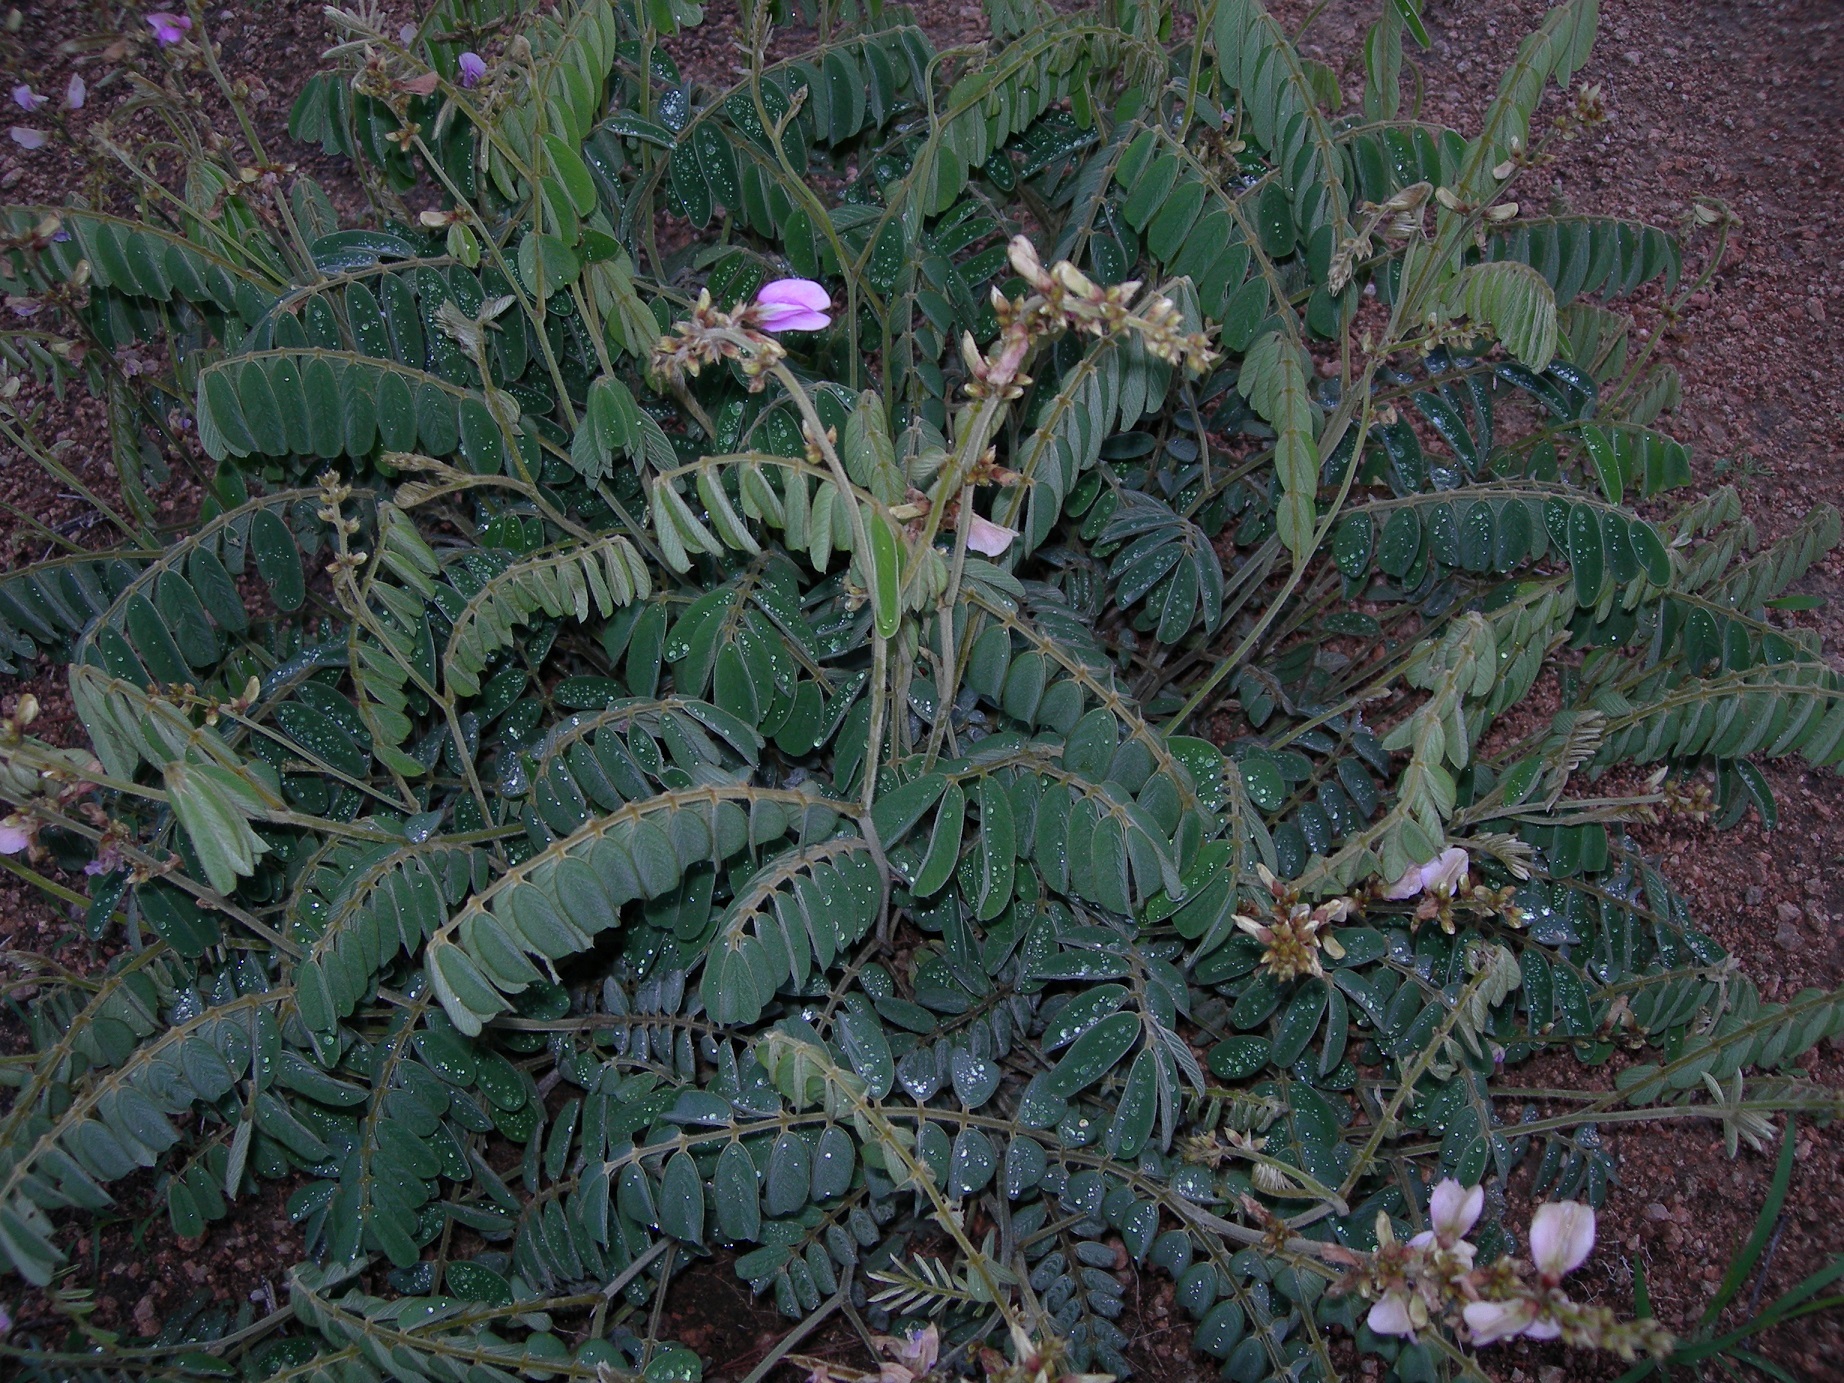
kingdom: Plantae
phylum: Tracheophyta
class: Magnoliopsida
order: Fabales
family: Fabaceae
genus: Indigofera
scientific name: Indigofera matudae
